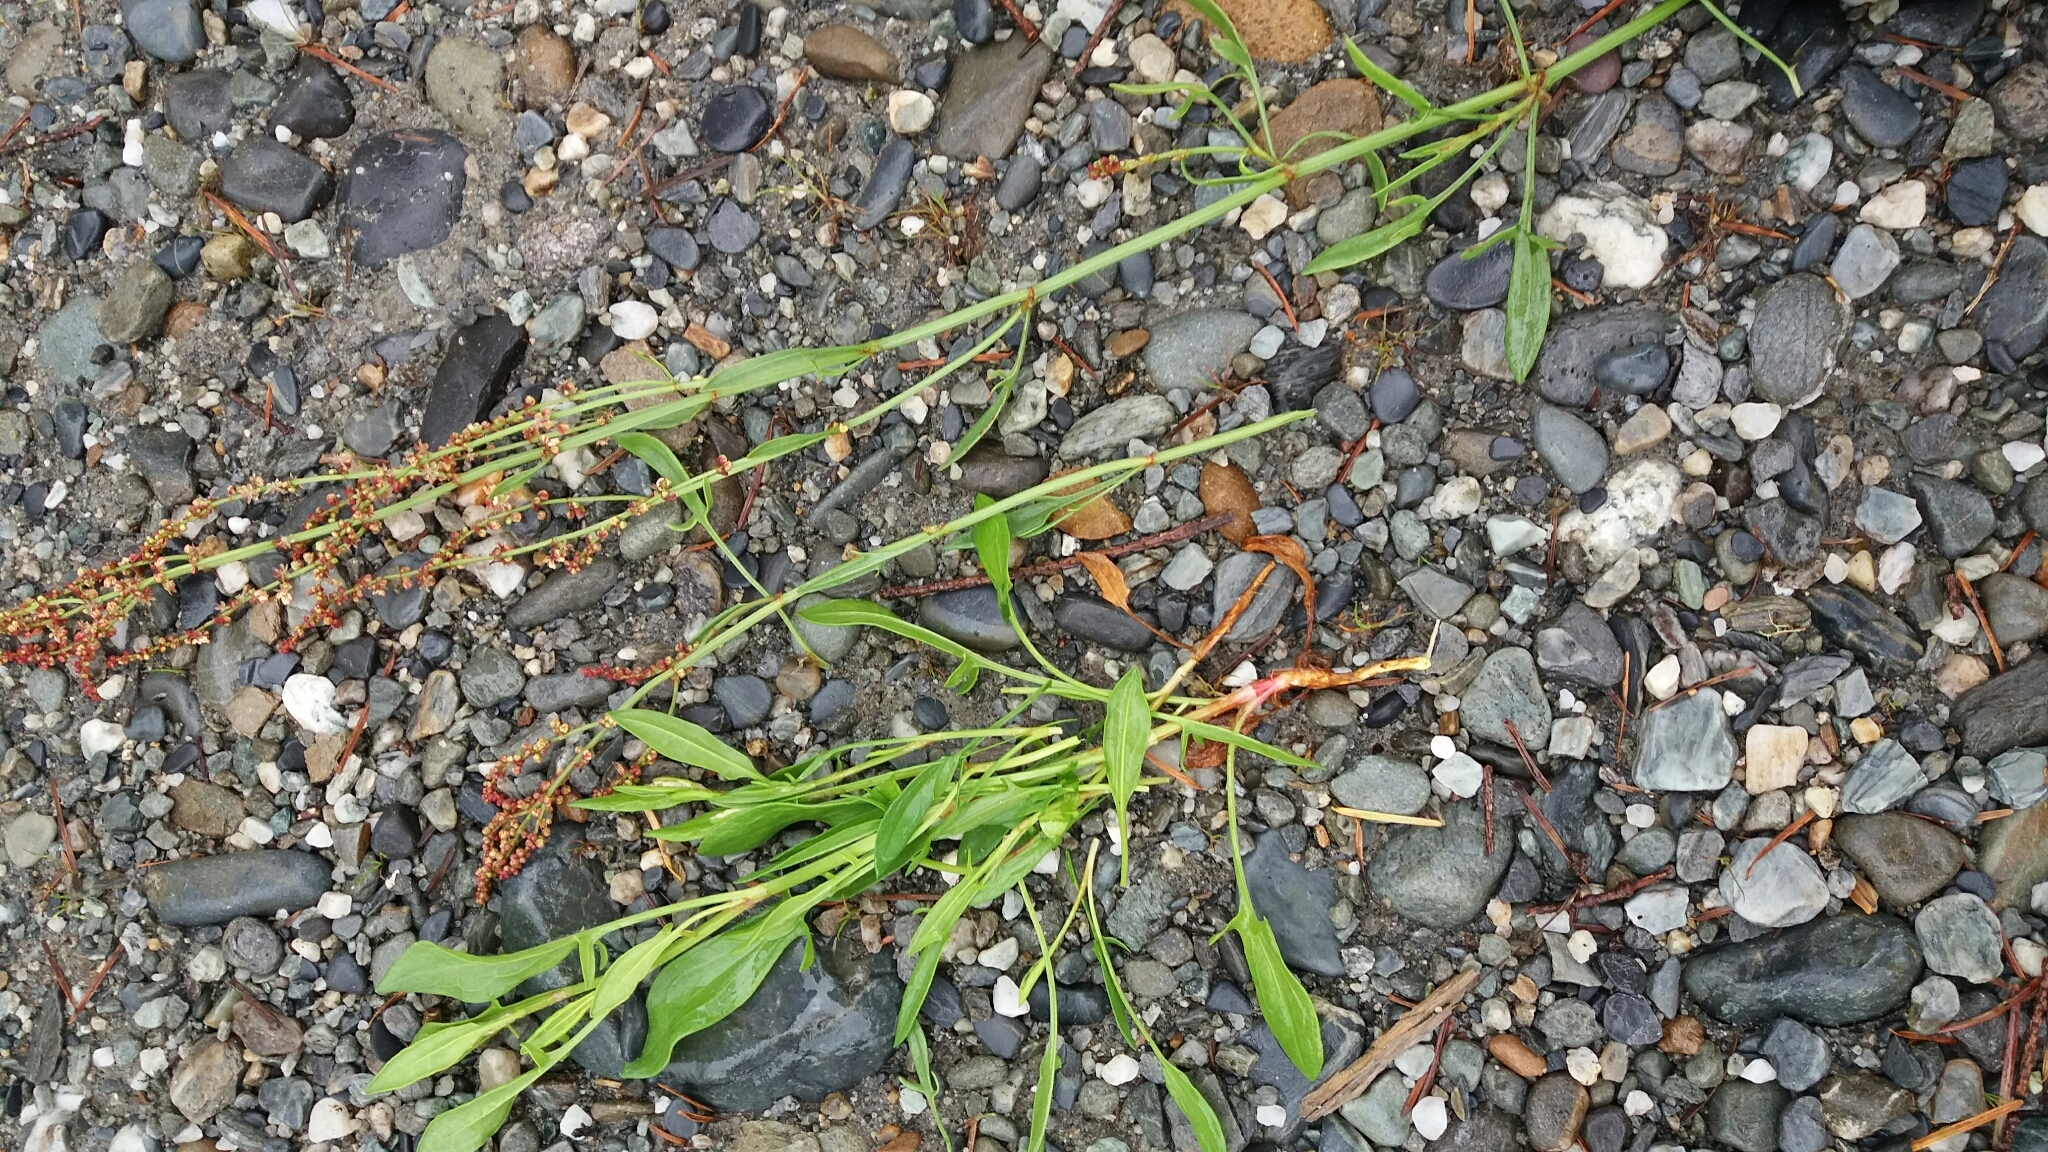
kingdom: Plantae
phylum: Tracheophyta
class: Magnoliopsida
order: Caryophyllales
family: Polygonaceae
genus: Rumex
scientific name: Rumex acetosella
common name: Common sheep sorrel
